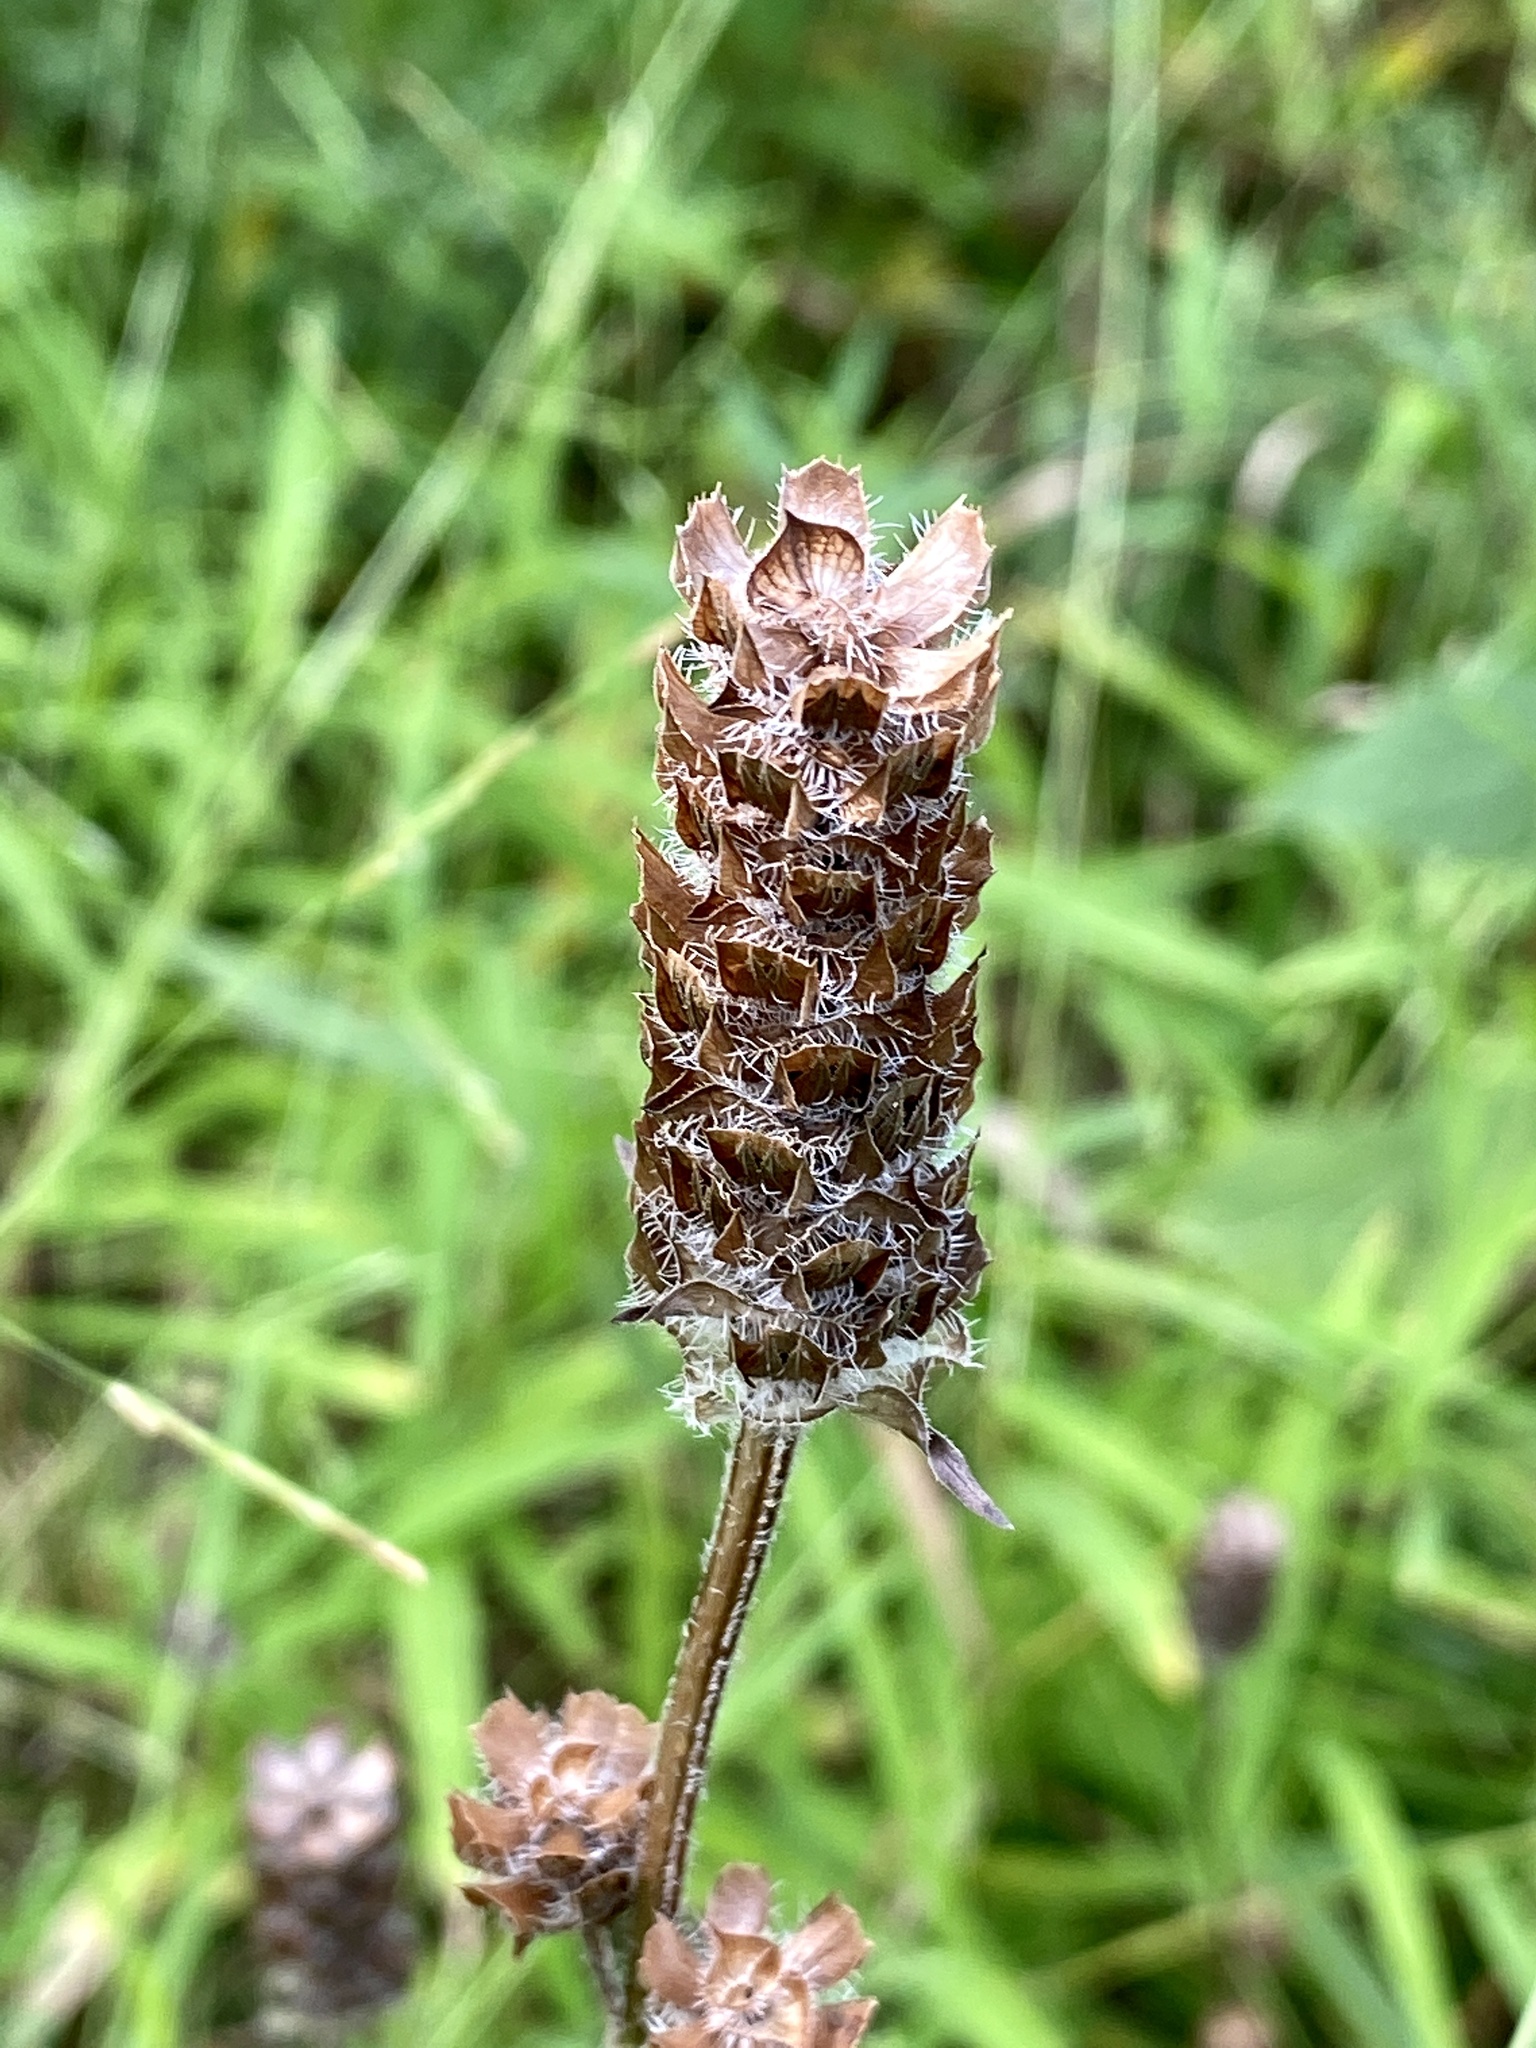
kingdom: Plantae
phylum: Tracheophyta
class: Magnoliopsida
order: Lamiales
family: Lamiaceae
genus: Prunella
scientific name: Prunella vulgaris
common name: Heal-all
